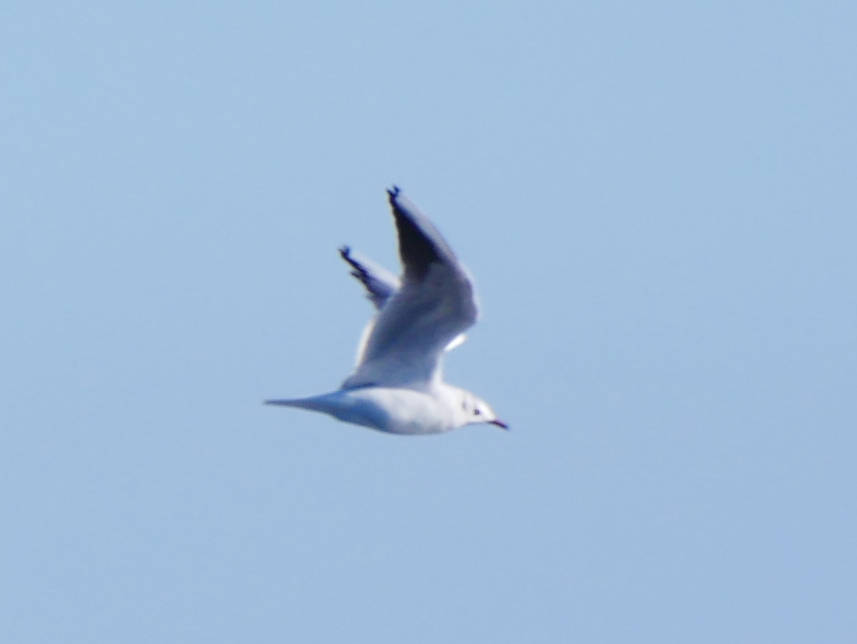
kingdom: Animalia
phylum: Chordata
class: Aves
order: Charadriiformes
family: Laridae
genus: Chroicocephalus
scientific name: Chroicocephalus ridibundus
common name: Black-headed gull
